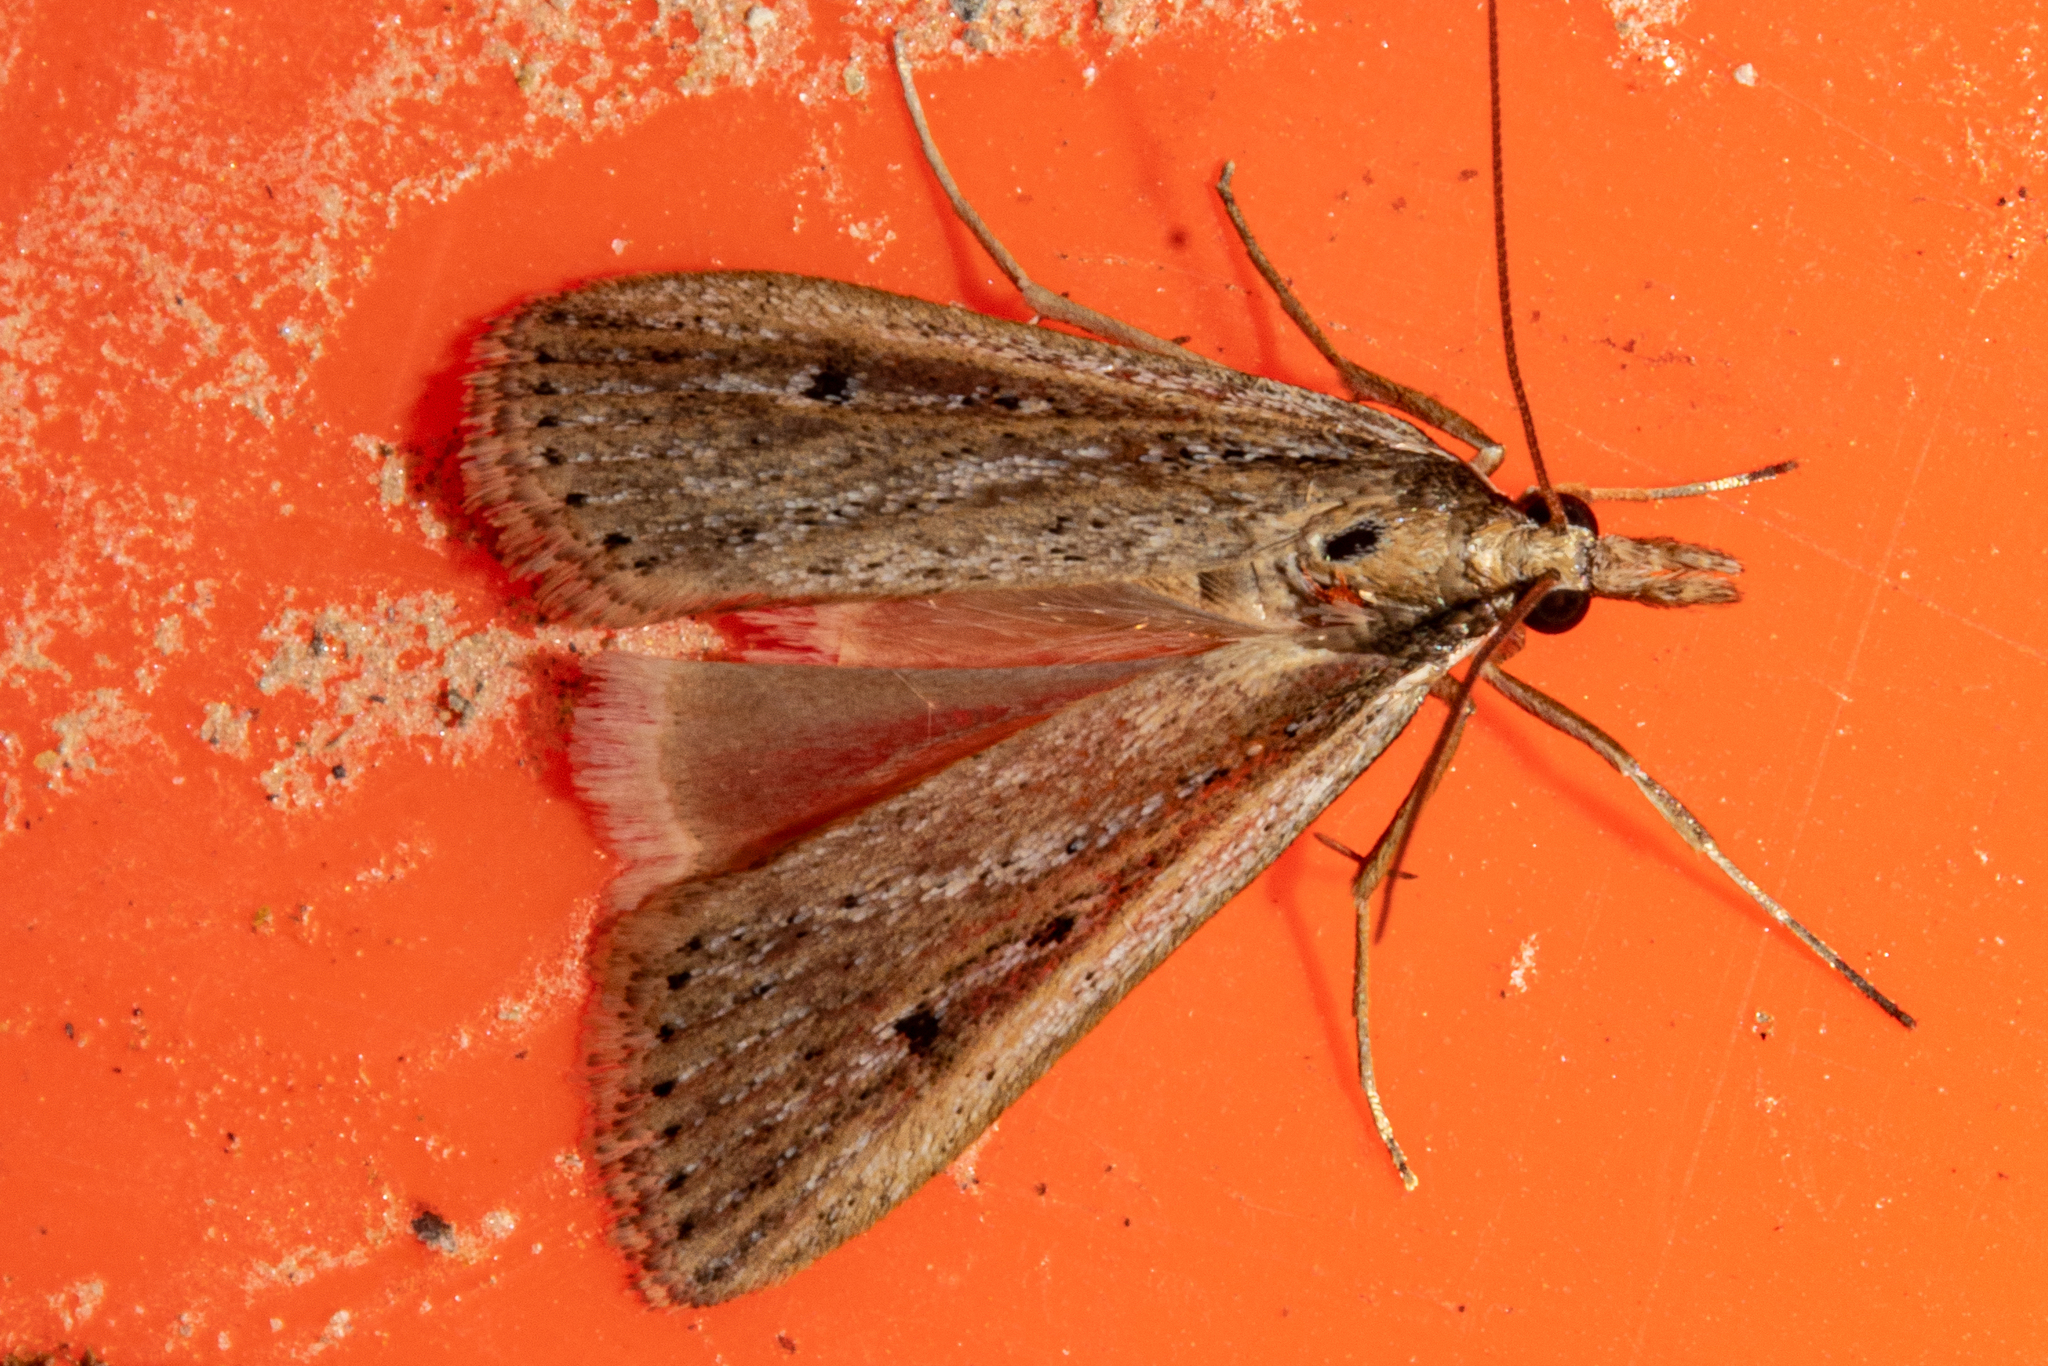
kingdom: Animalia
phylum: Arthropoda
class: Insecta
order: Lepidoptera
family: Crambidae
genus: Eudonia
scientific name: Eudonia sabulosella
